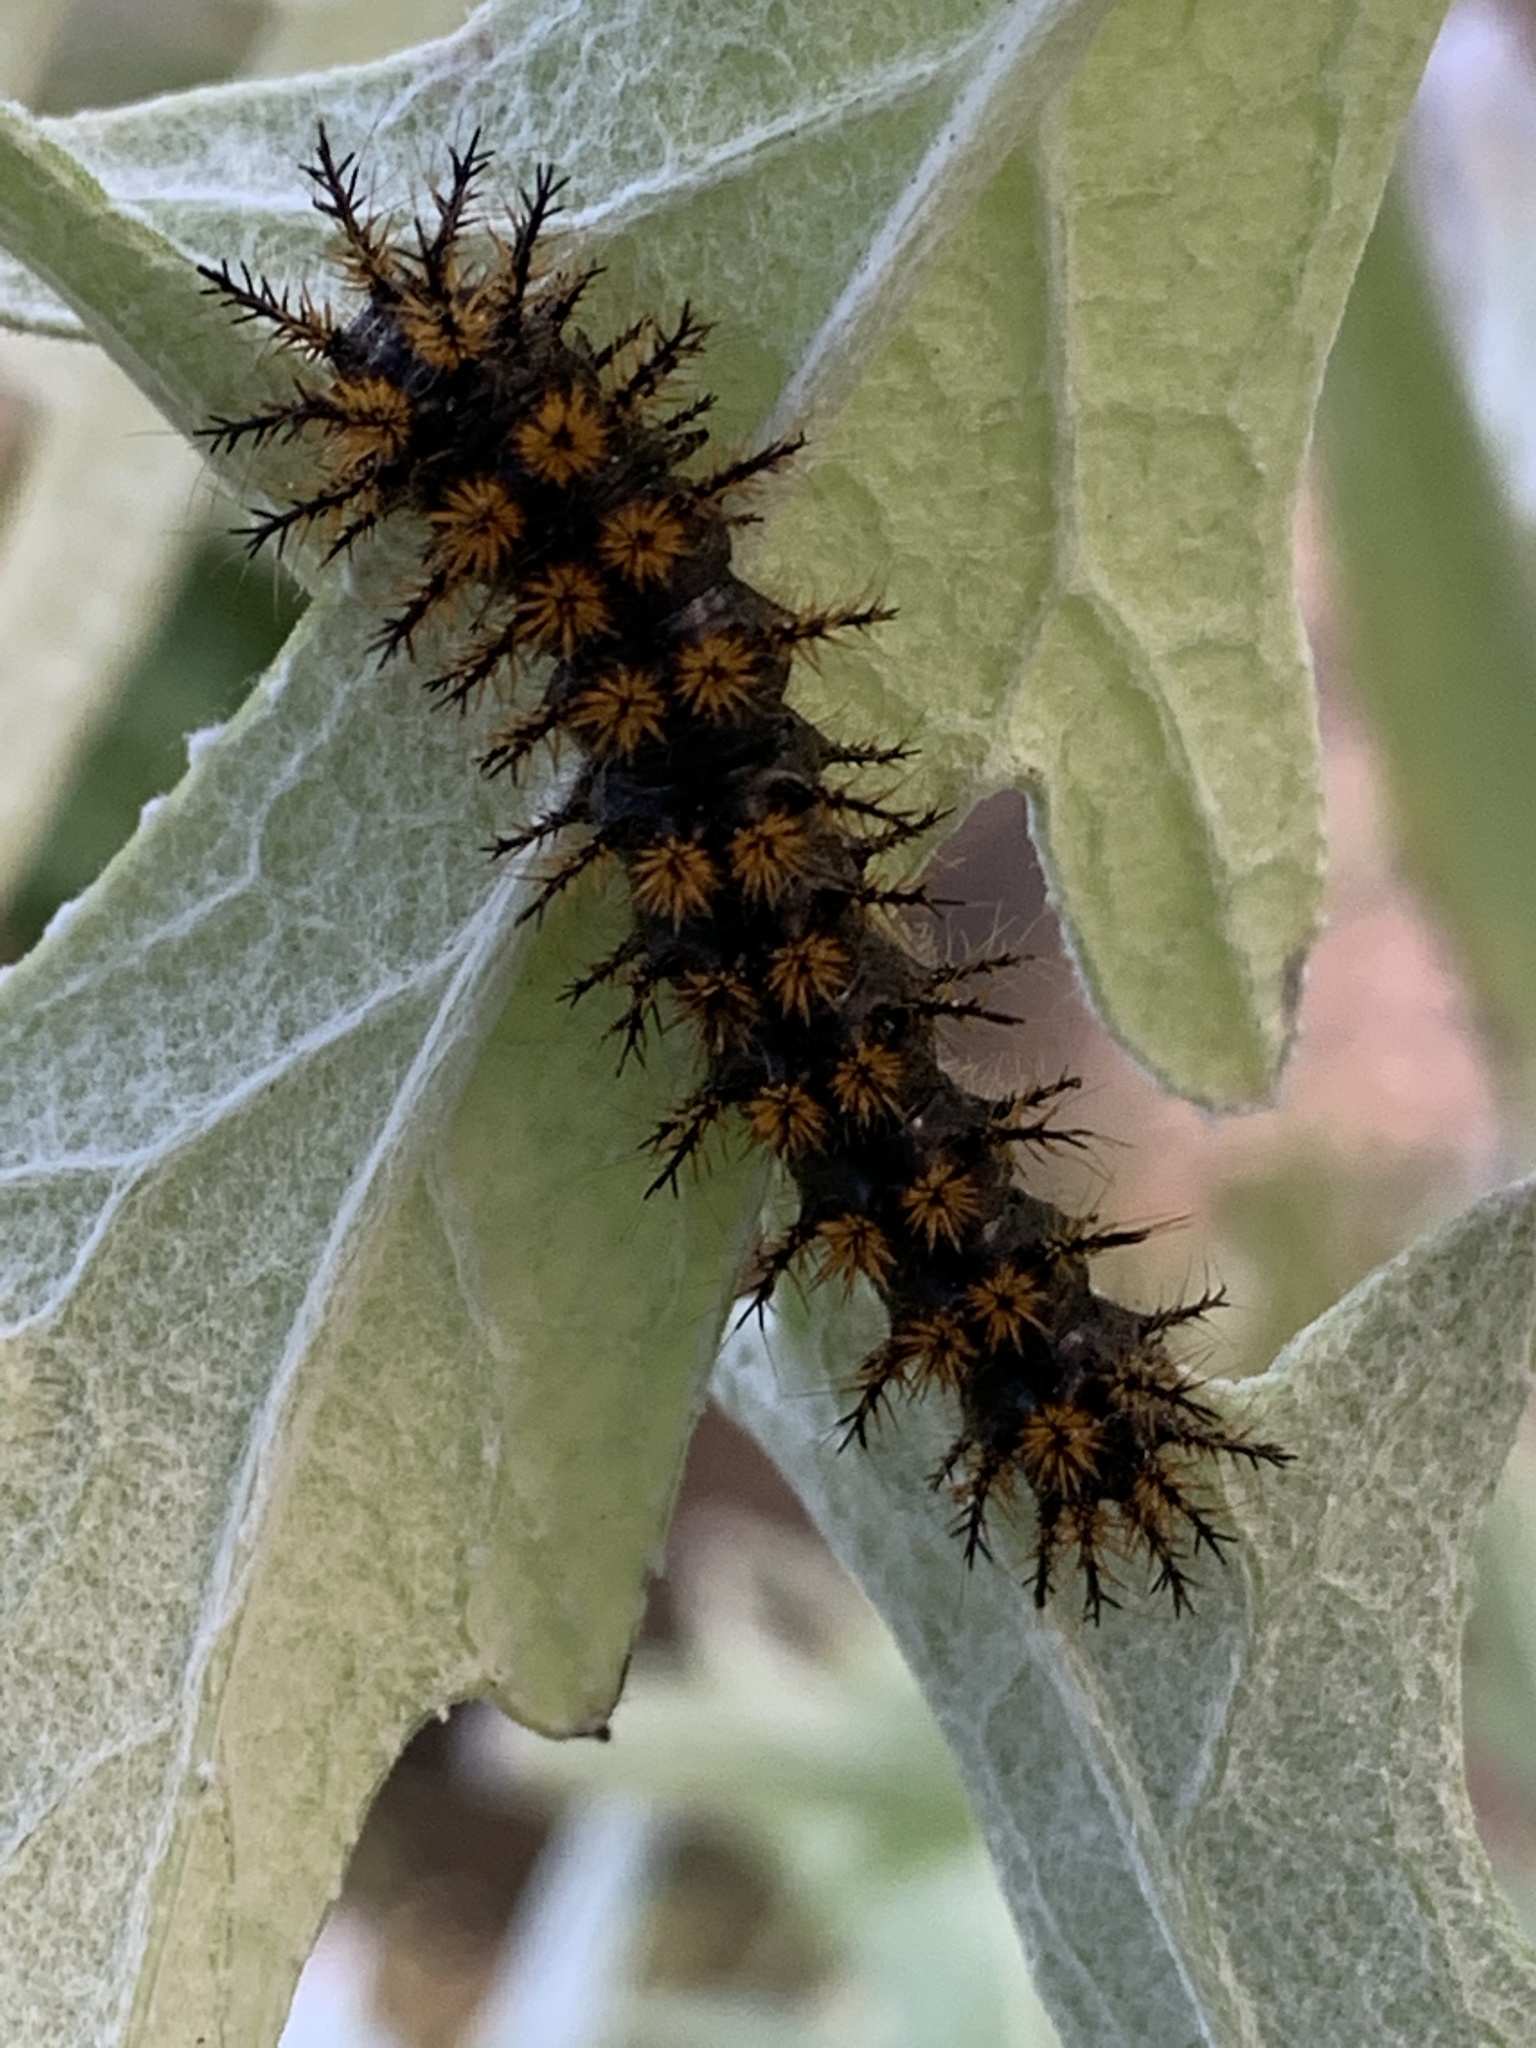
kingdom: Animalia
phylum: Arthropoda
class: Insecta
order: Lepidoptera
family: Saturniidae
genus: Hemileuca
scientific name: Hemileuca eglanterina
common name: Western sheepmoth
